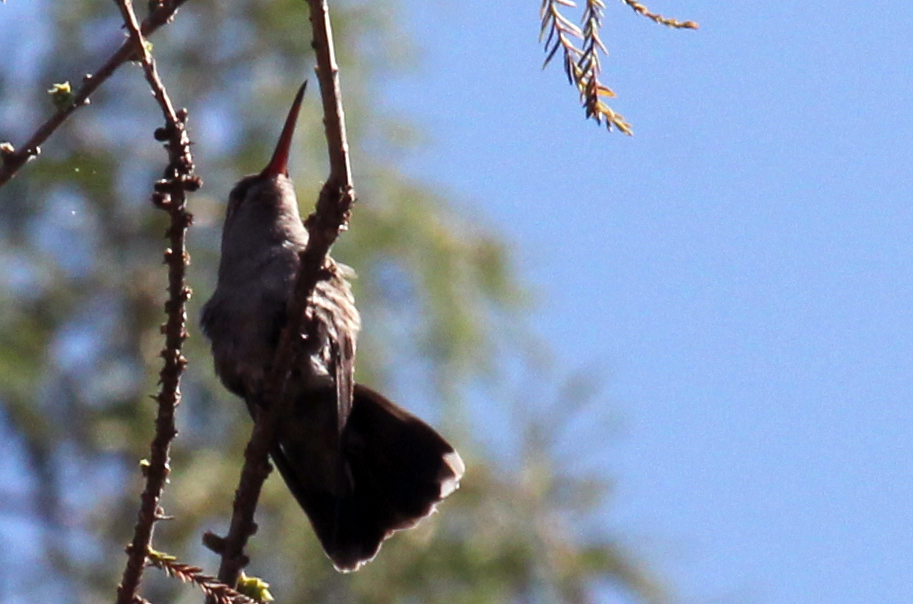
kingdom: Animalia
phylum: Chordata
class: Aves
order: Apodiformes
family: Trochilidae
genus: Cynanthus
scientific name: Cynanthus latirostris
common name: Broad-billed hummingbird
